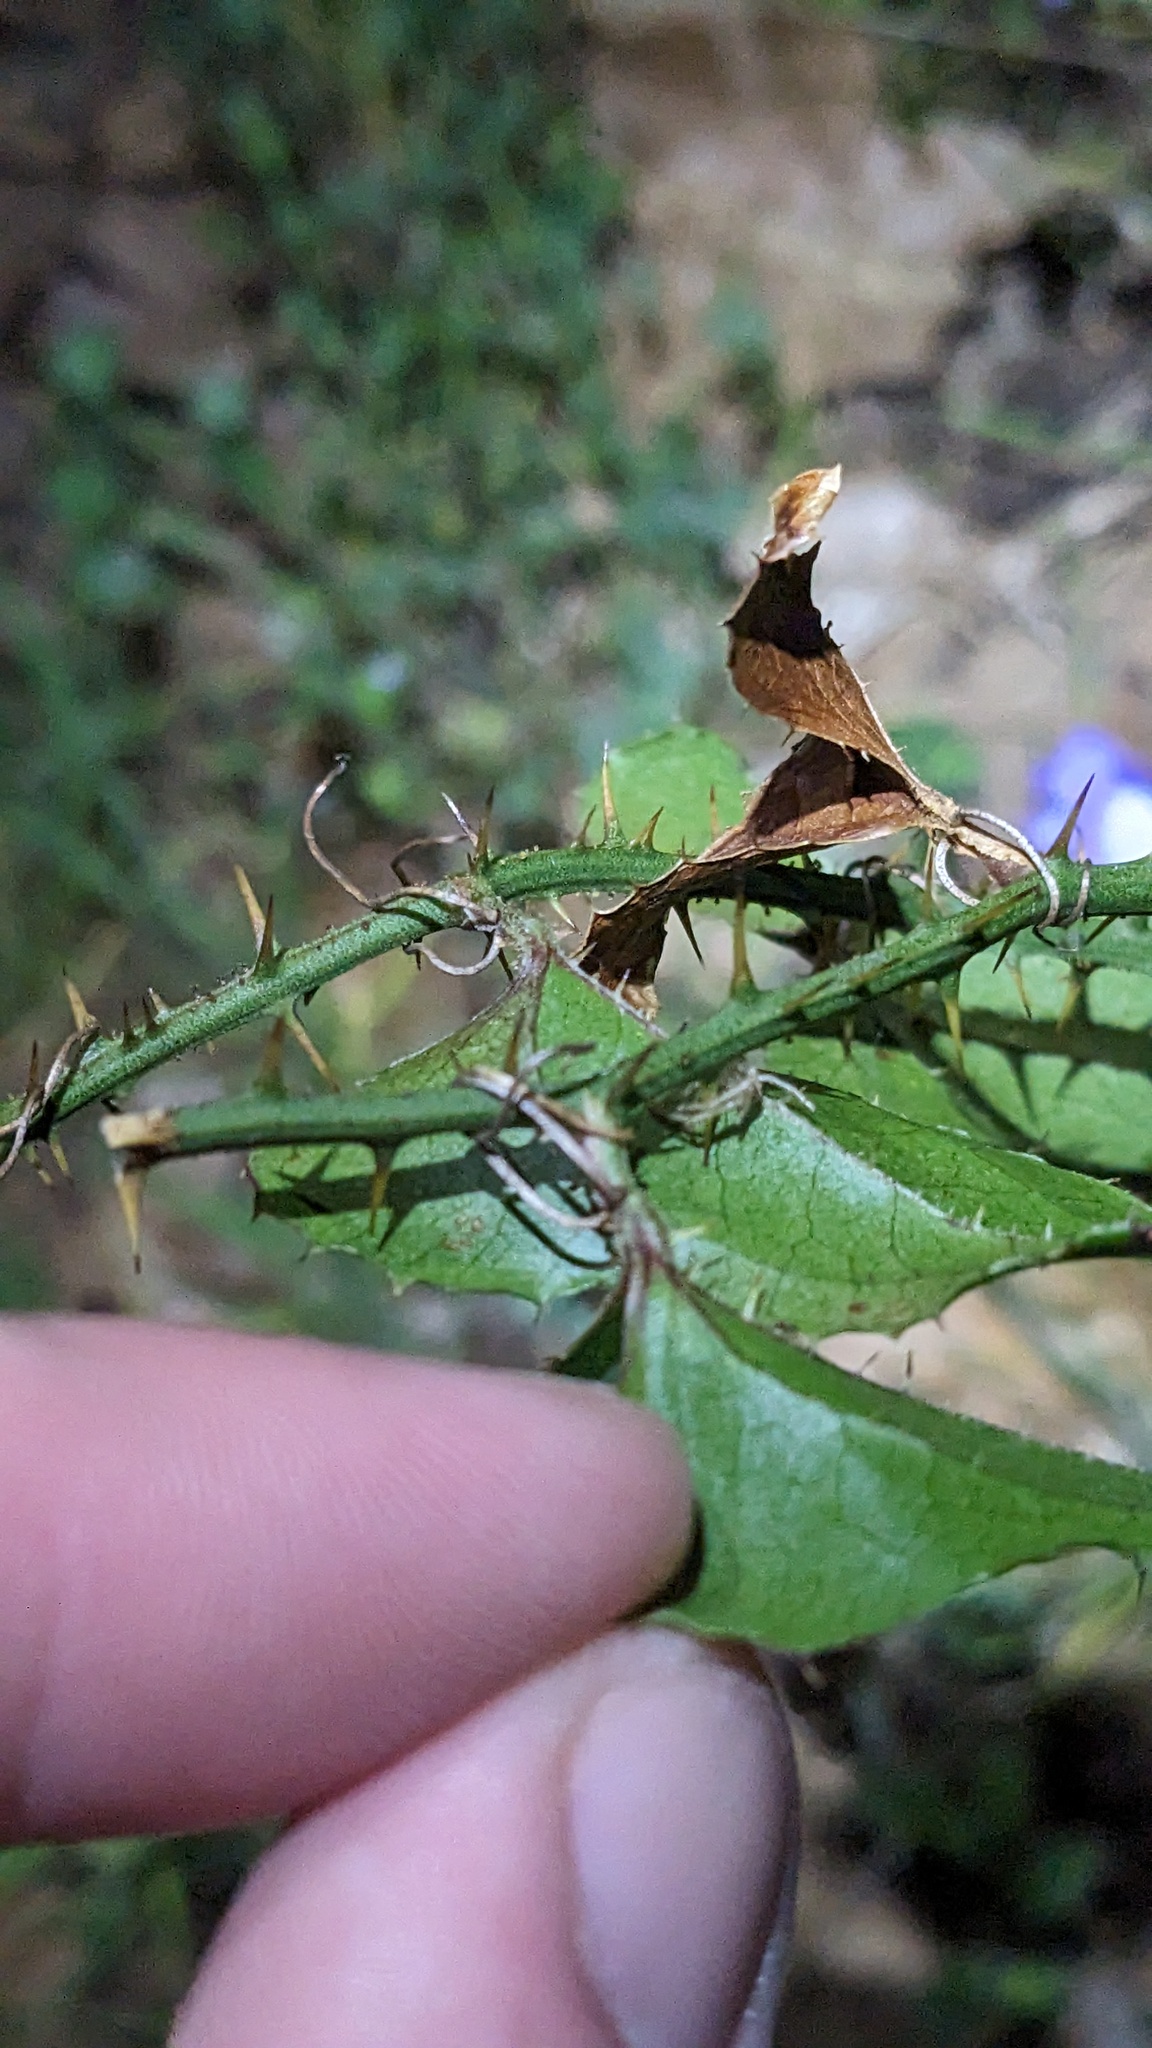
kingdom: Plantae
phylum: Tracheophyta
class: Liliopsida
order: Liliales
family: Smilacaceae
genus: Smilax
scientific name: Smilax bona-nox
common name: Catbrier
